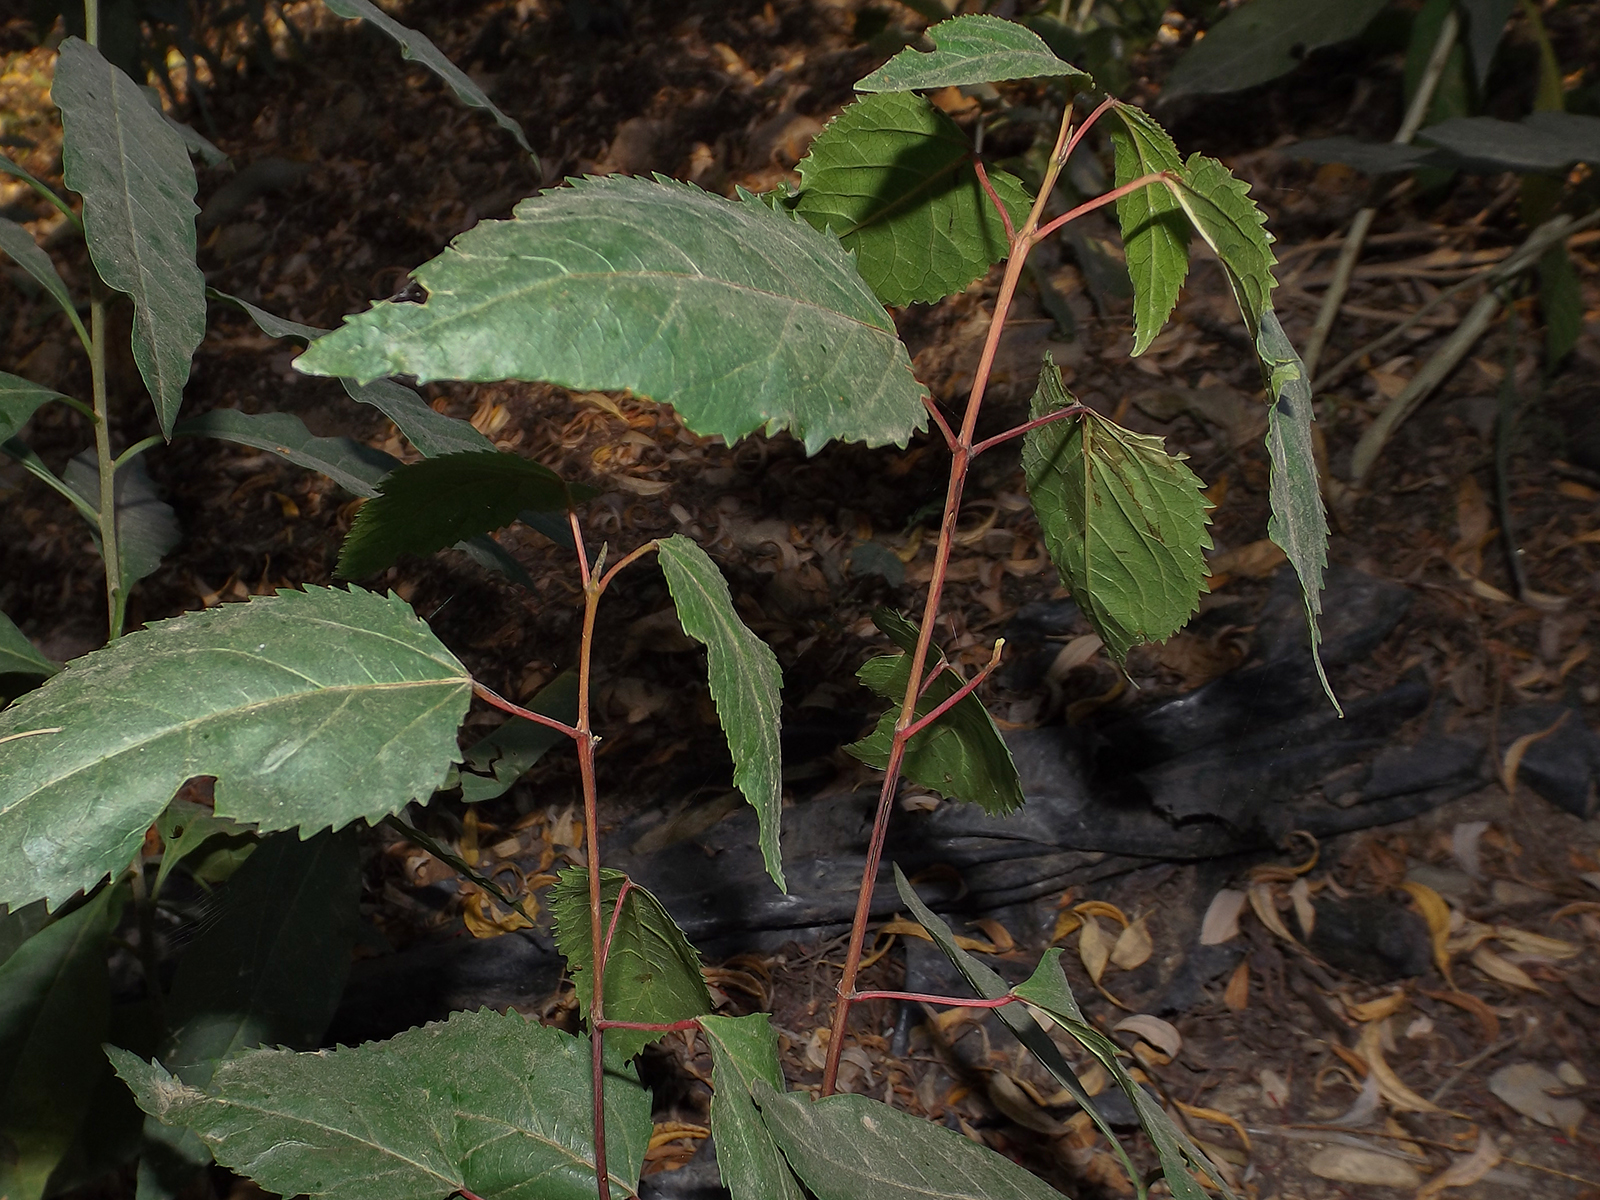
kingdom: Plantae
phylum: Tracheophyta
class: Magnoliopsida
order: Oxalidales
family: Elaeocarpaceae
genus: Aristotelia
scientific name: Aristotelia chilensis
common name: Maquei
